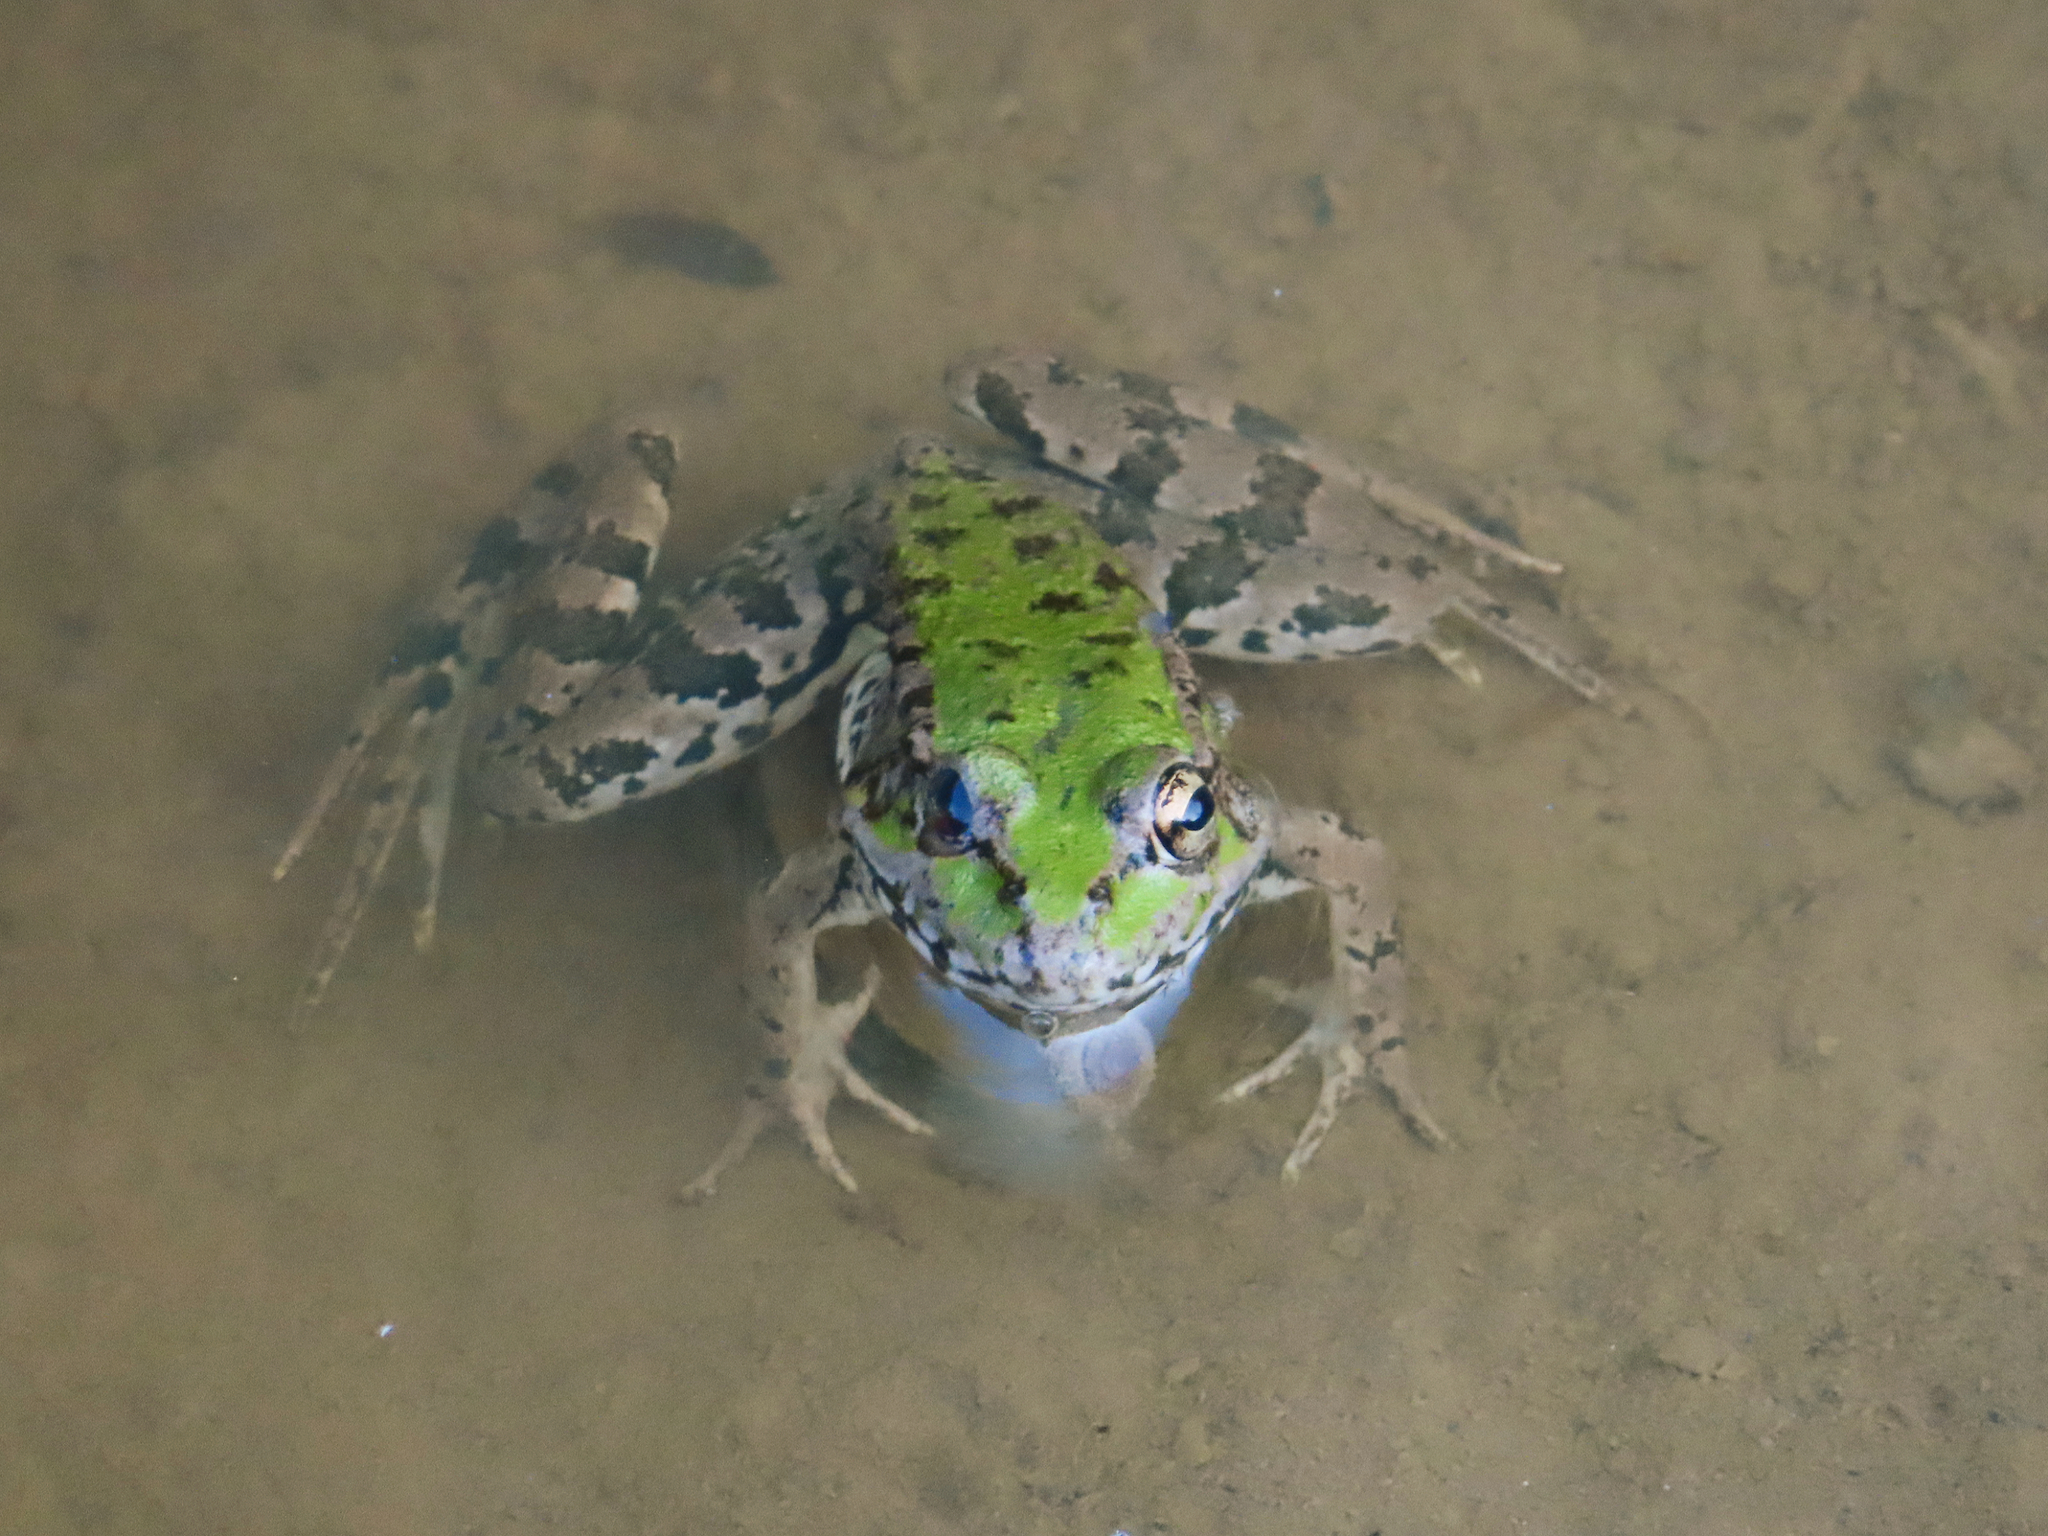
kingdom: Animalia
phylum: Chordata
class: Amphibia
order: Anura
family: Ranidae
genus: Pelophylax
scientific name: Pelophylax ridibundus
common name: Marsh frog
